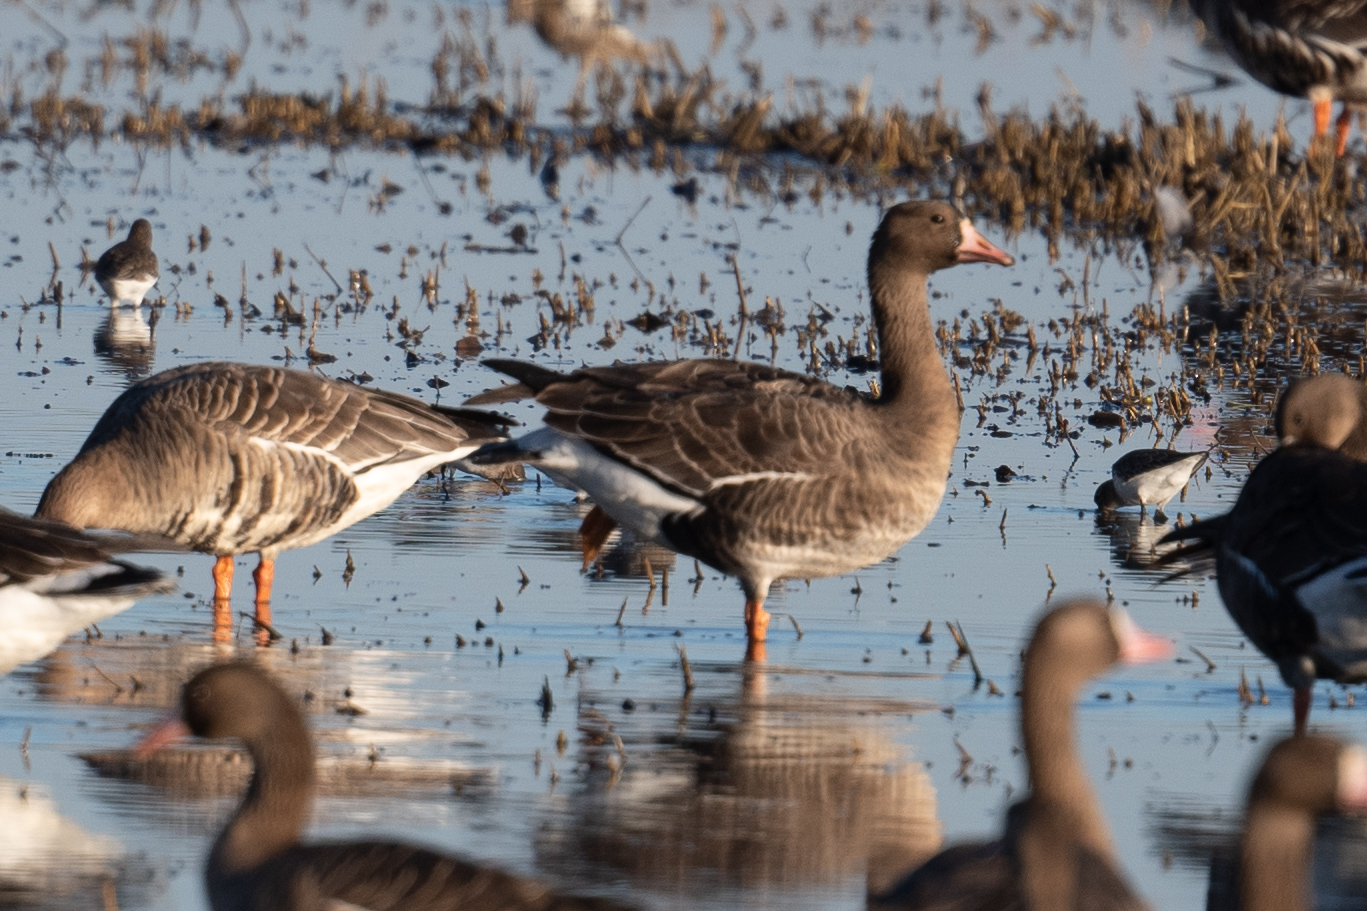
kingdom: Animalia
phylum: Chordata
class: Aves
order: Anseriformes
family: Anatidae
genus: Anser
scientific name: Anser albifrons
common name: Greater white-fronted goose
